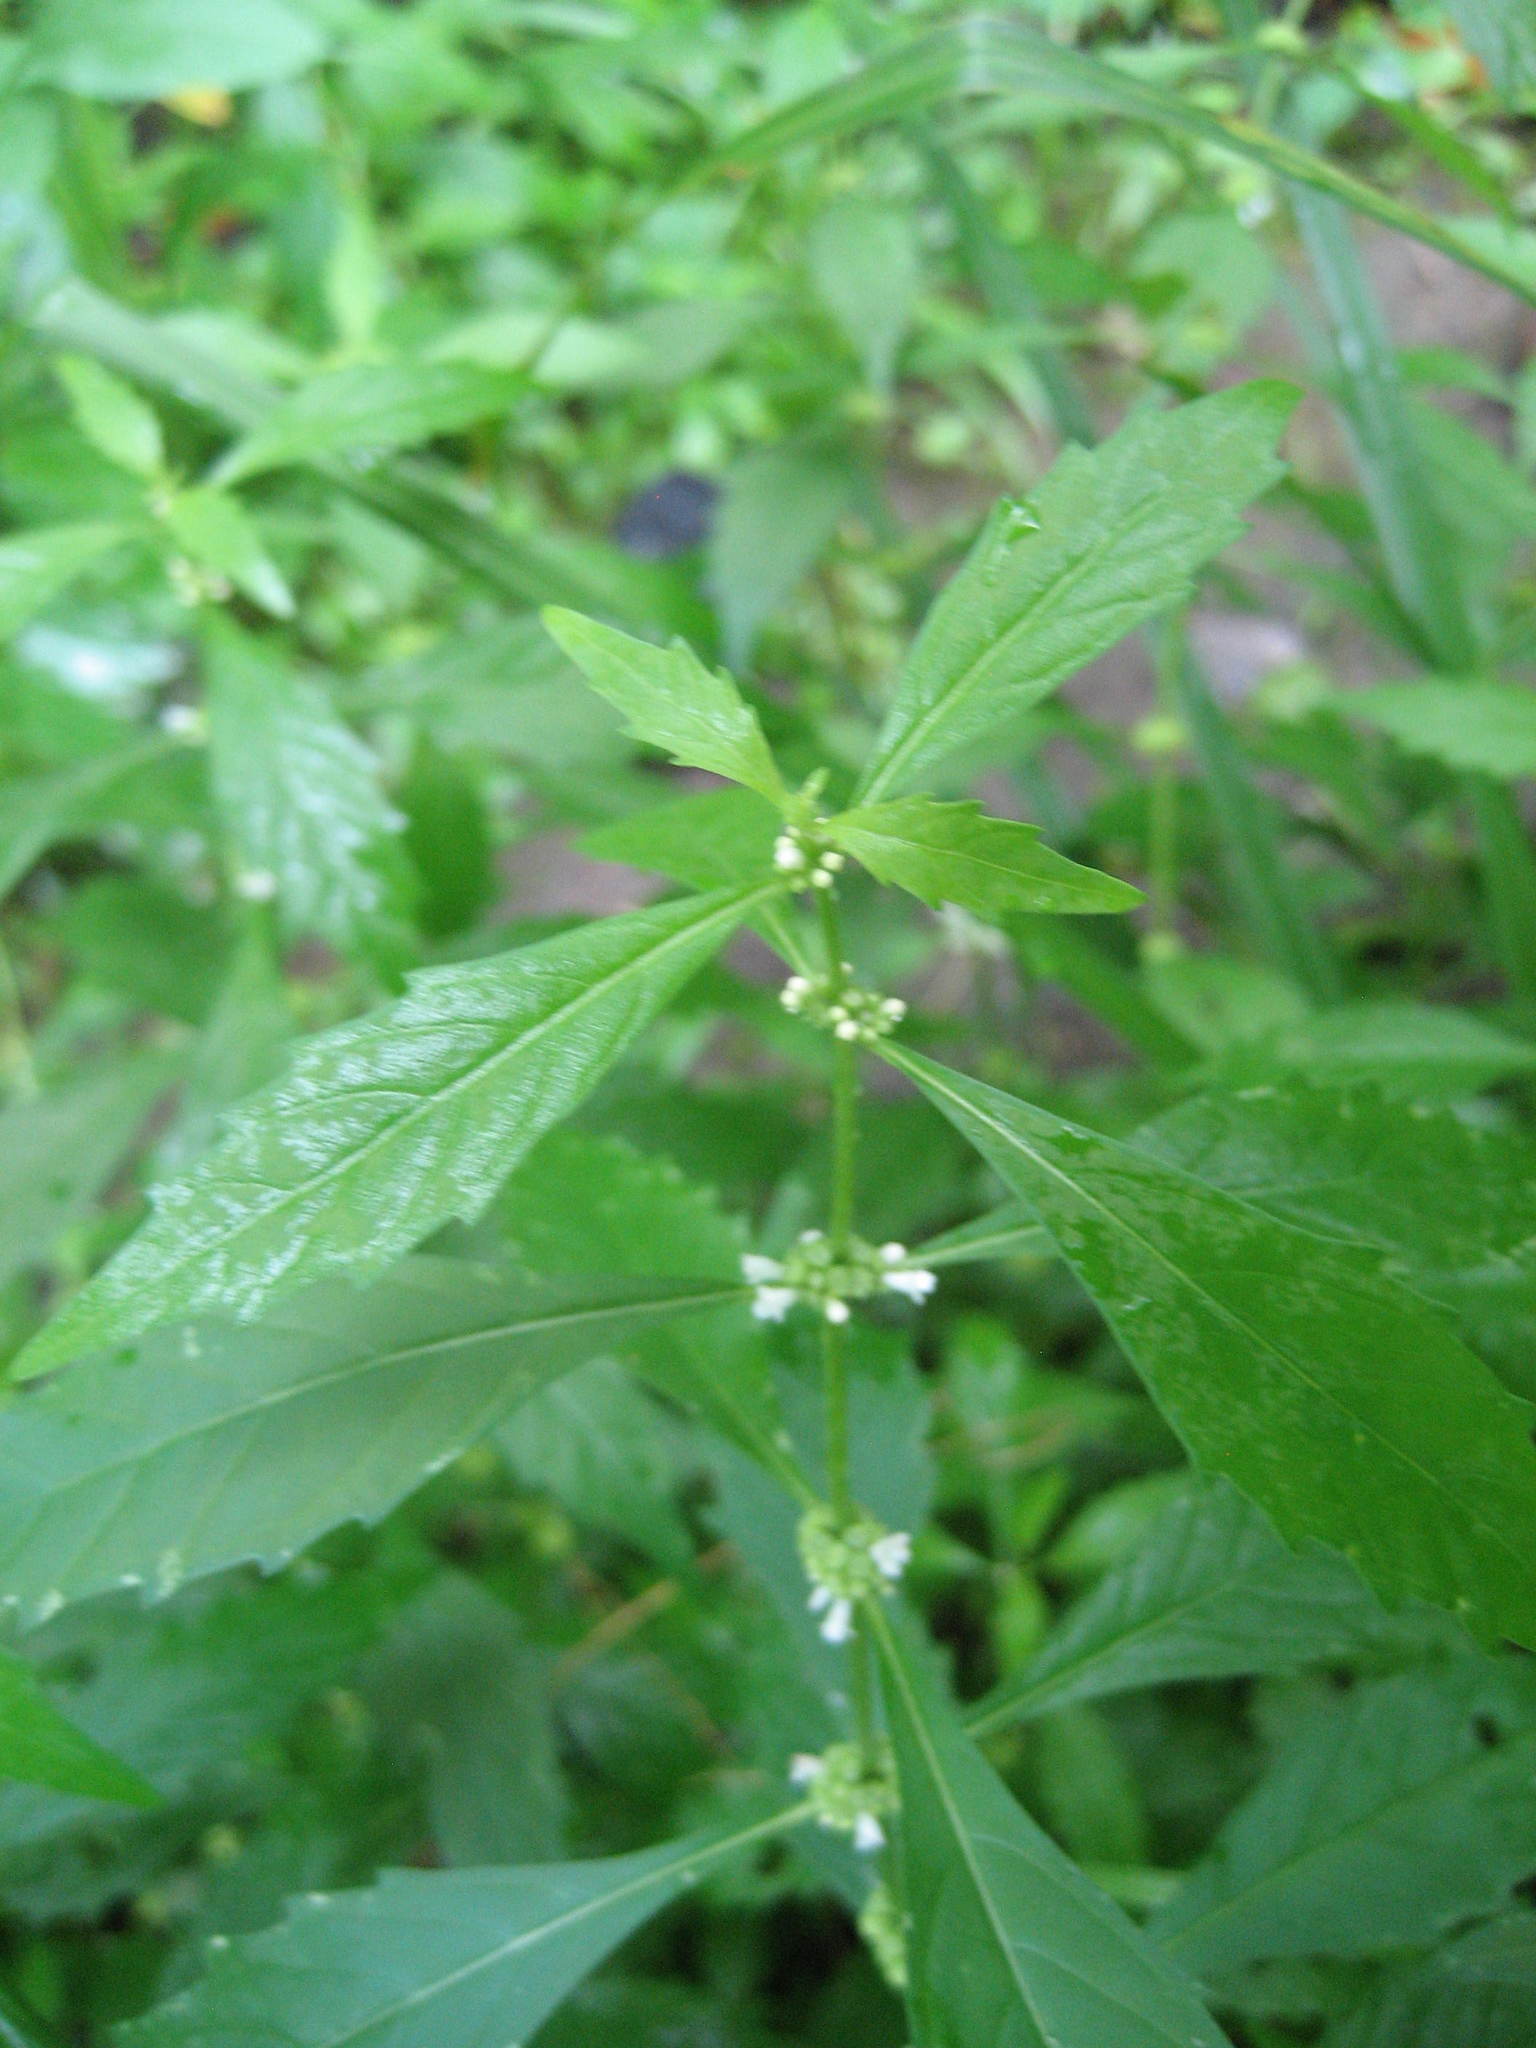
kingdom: Plantae
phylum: Tracheophyta
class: Magnoliopsida
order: Lamiales
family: Lamiaceae
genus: Lycopus
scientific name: Lycopus uniflorus
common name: Northern bugleweed
